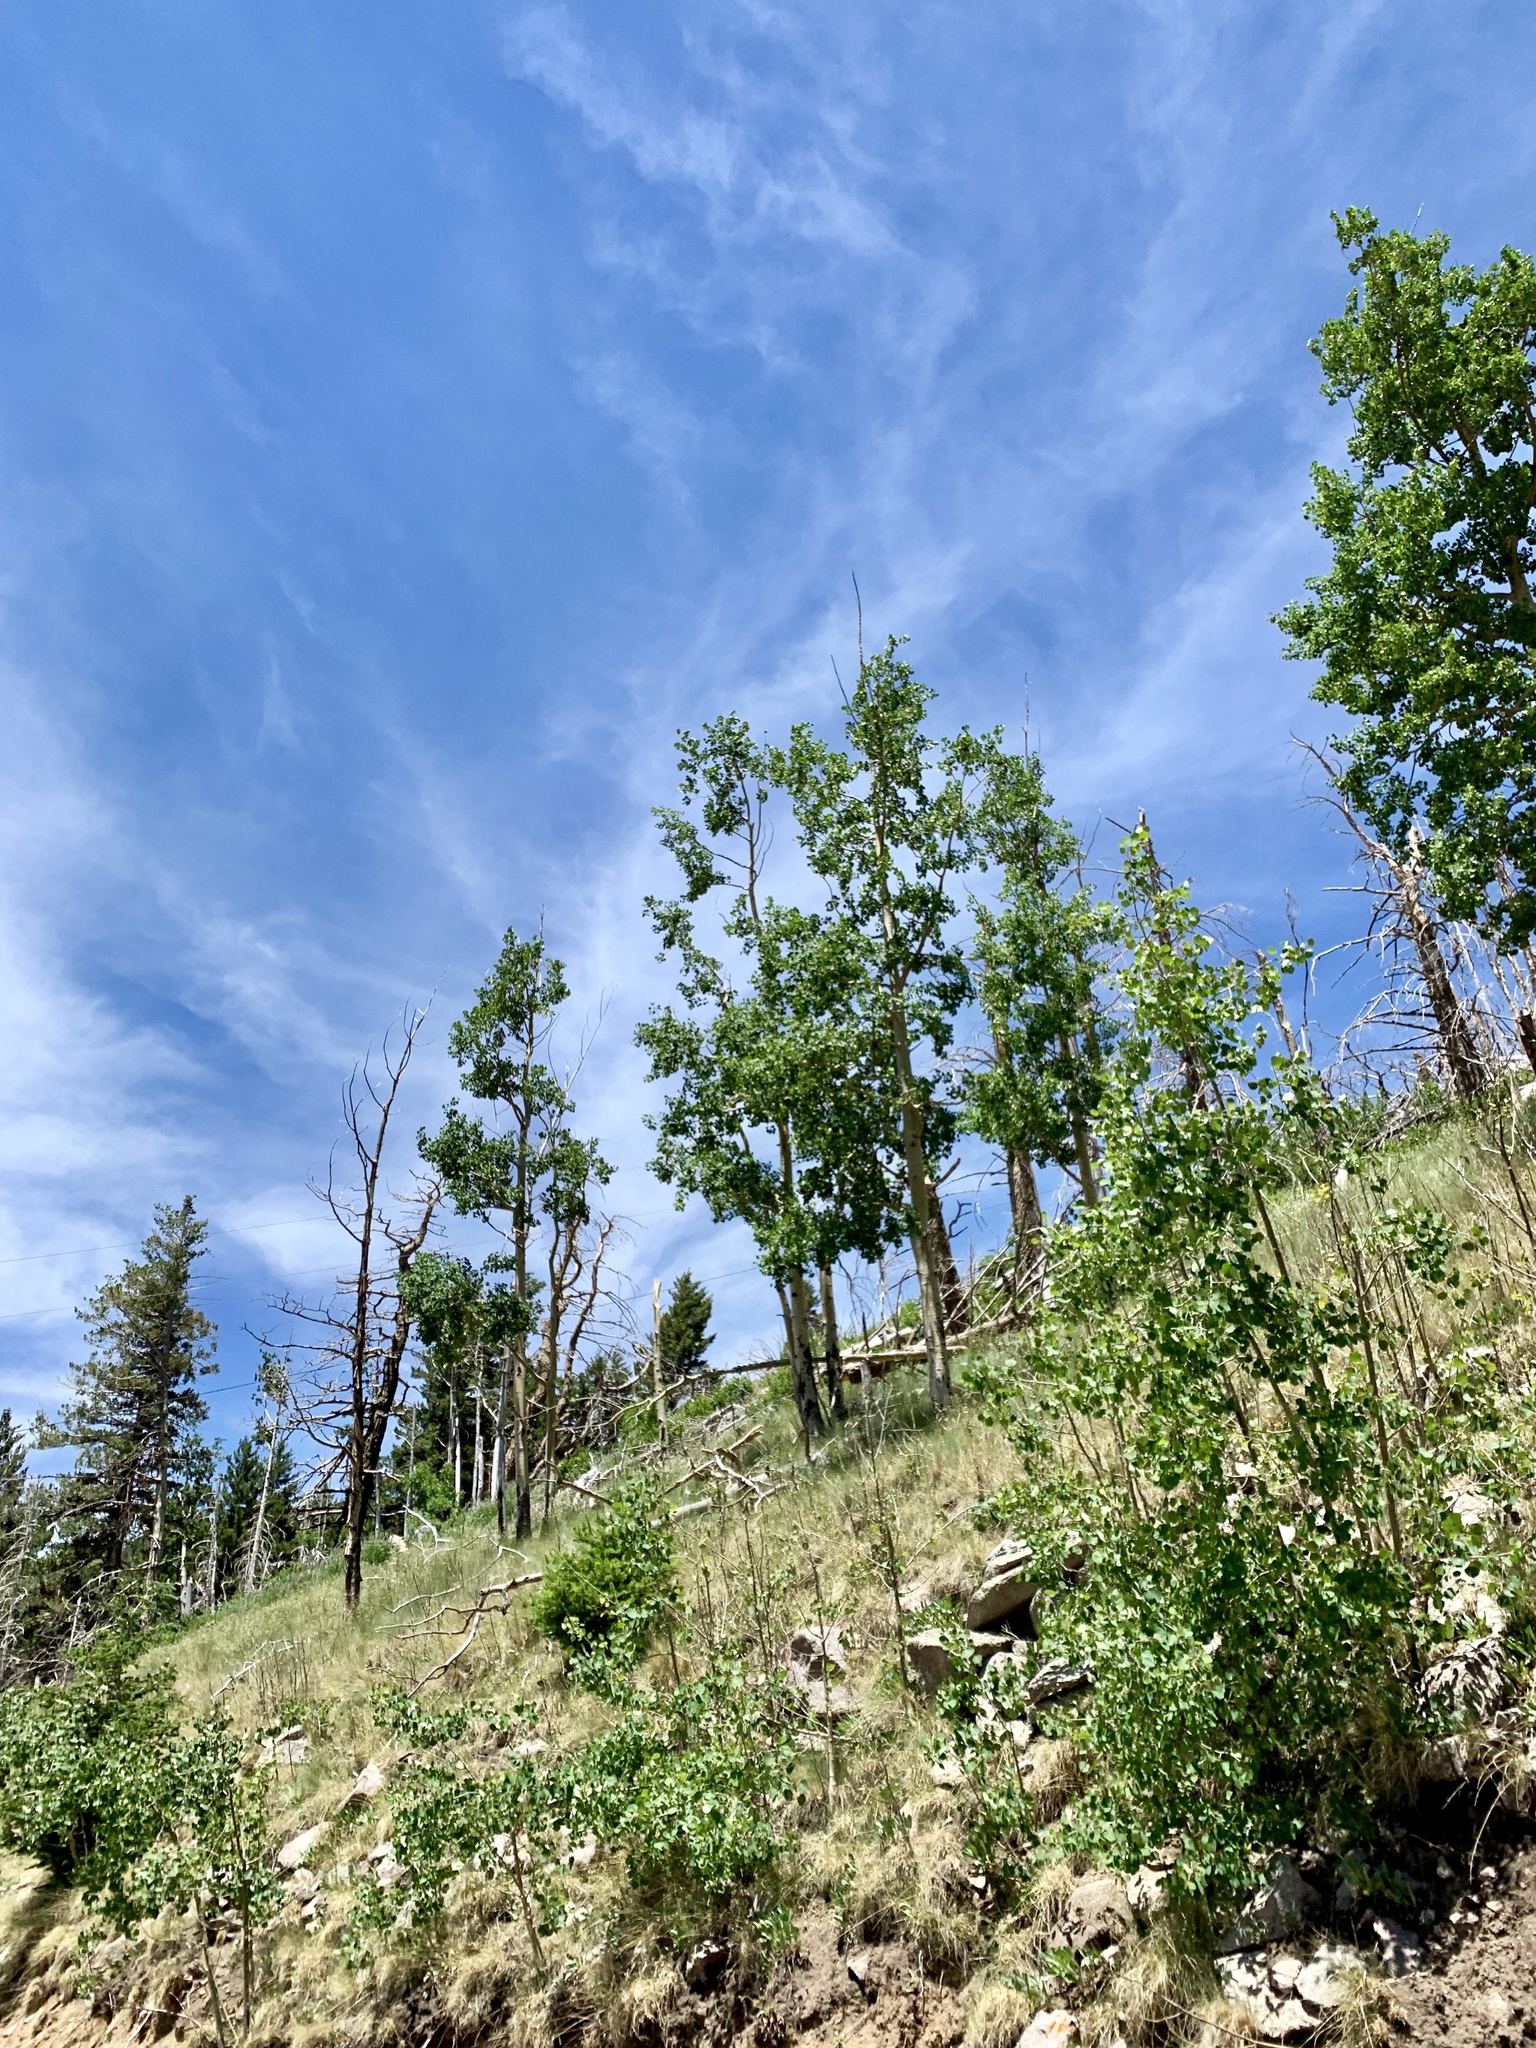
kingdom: Plantae
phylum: Tracheophyta
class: Magnoliopsida
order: Malpighiales
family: Salicaceae
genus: Populus
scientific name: Populus tremuloides
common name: Quaking aspen
